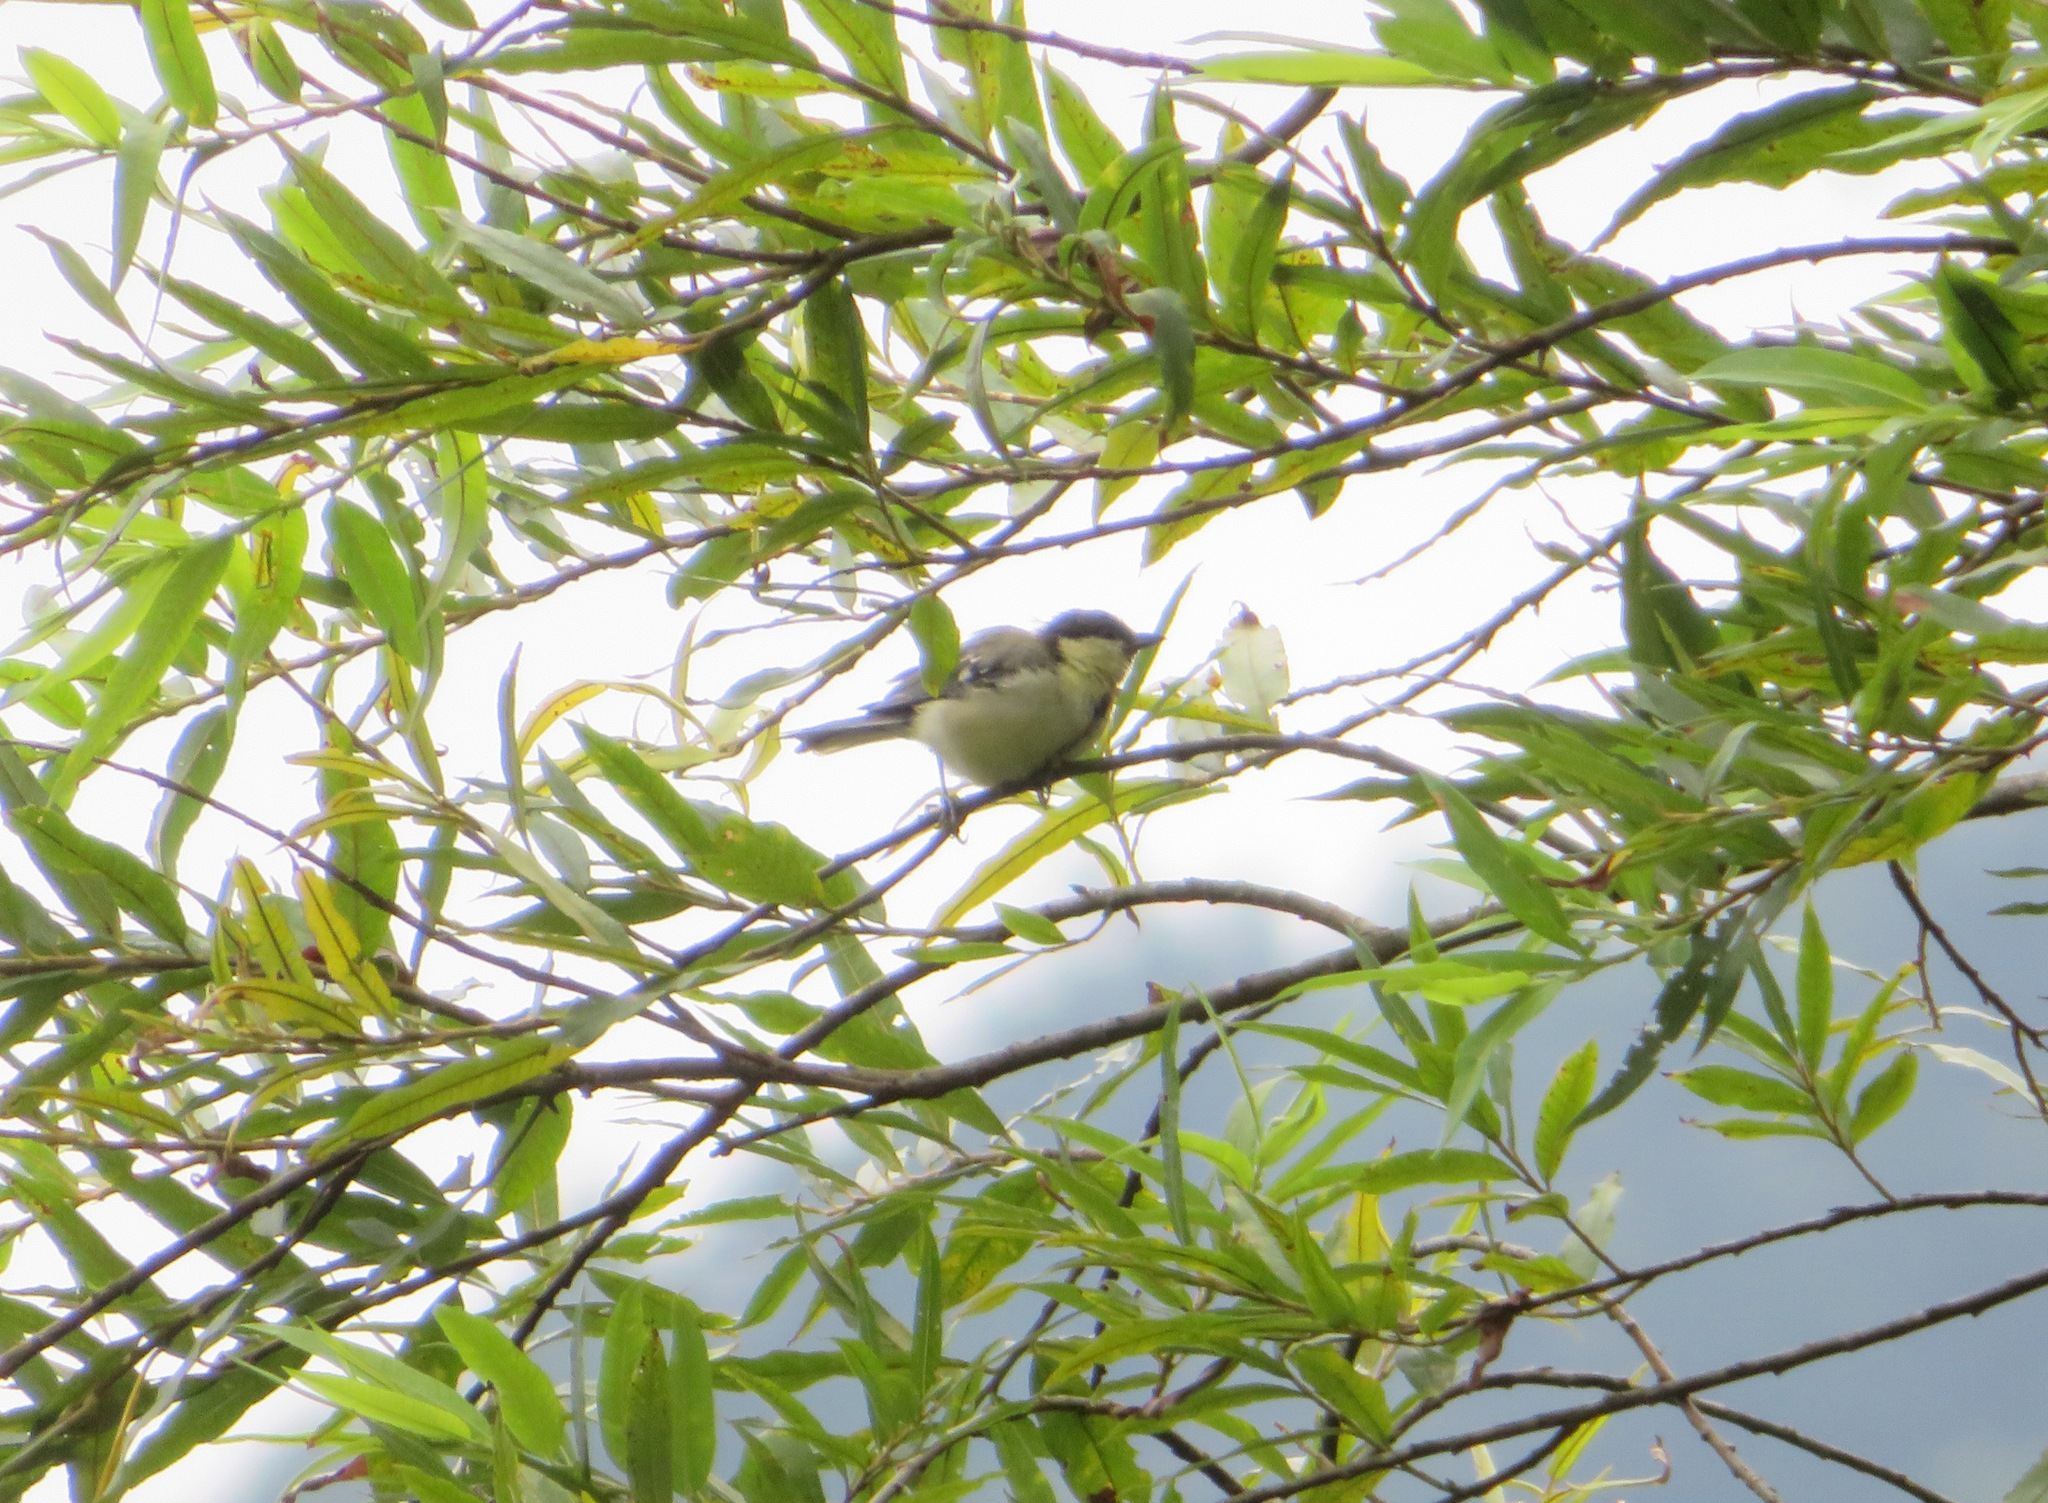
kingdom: Animalia
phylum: Chordata
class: Aves
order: Passeriformes
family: Paridae
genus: Parus
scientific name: Parus minor
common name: Japanese tit
